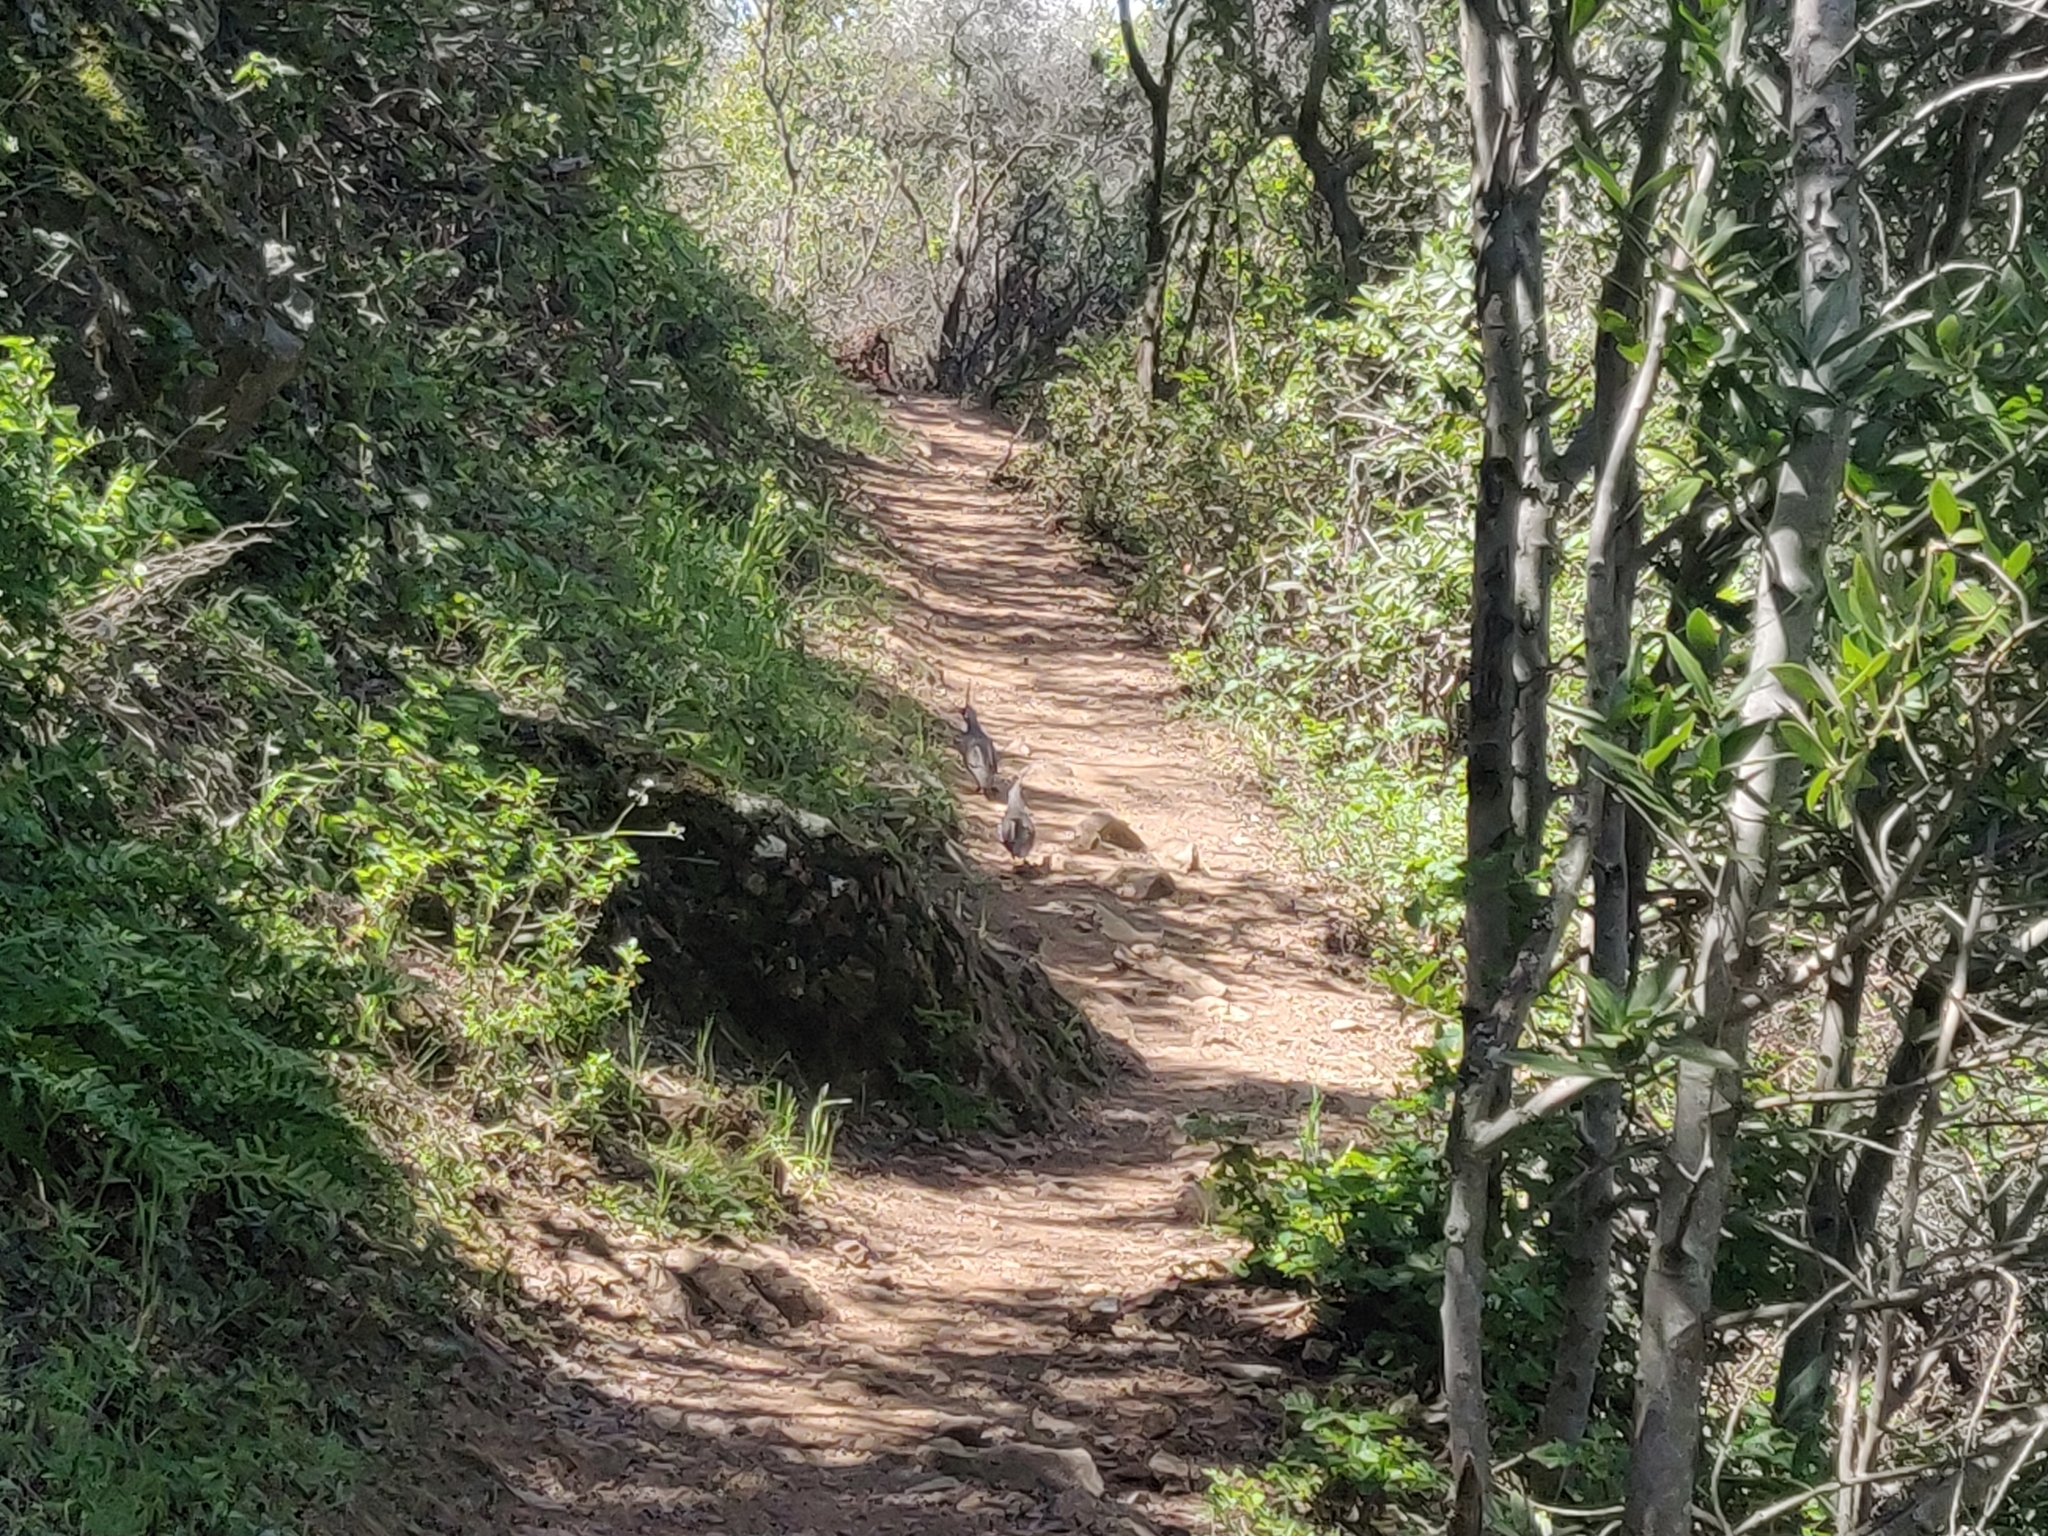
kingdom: Animalia
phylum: Chordata
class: Aves
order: Galliformes
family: Odontophoridae
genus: Callipepla
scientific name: Callipepla californica
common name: California quail
